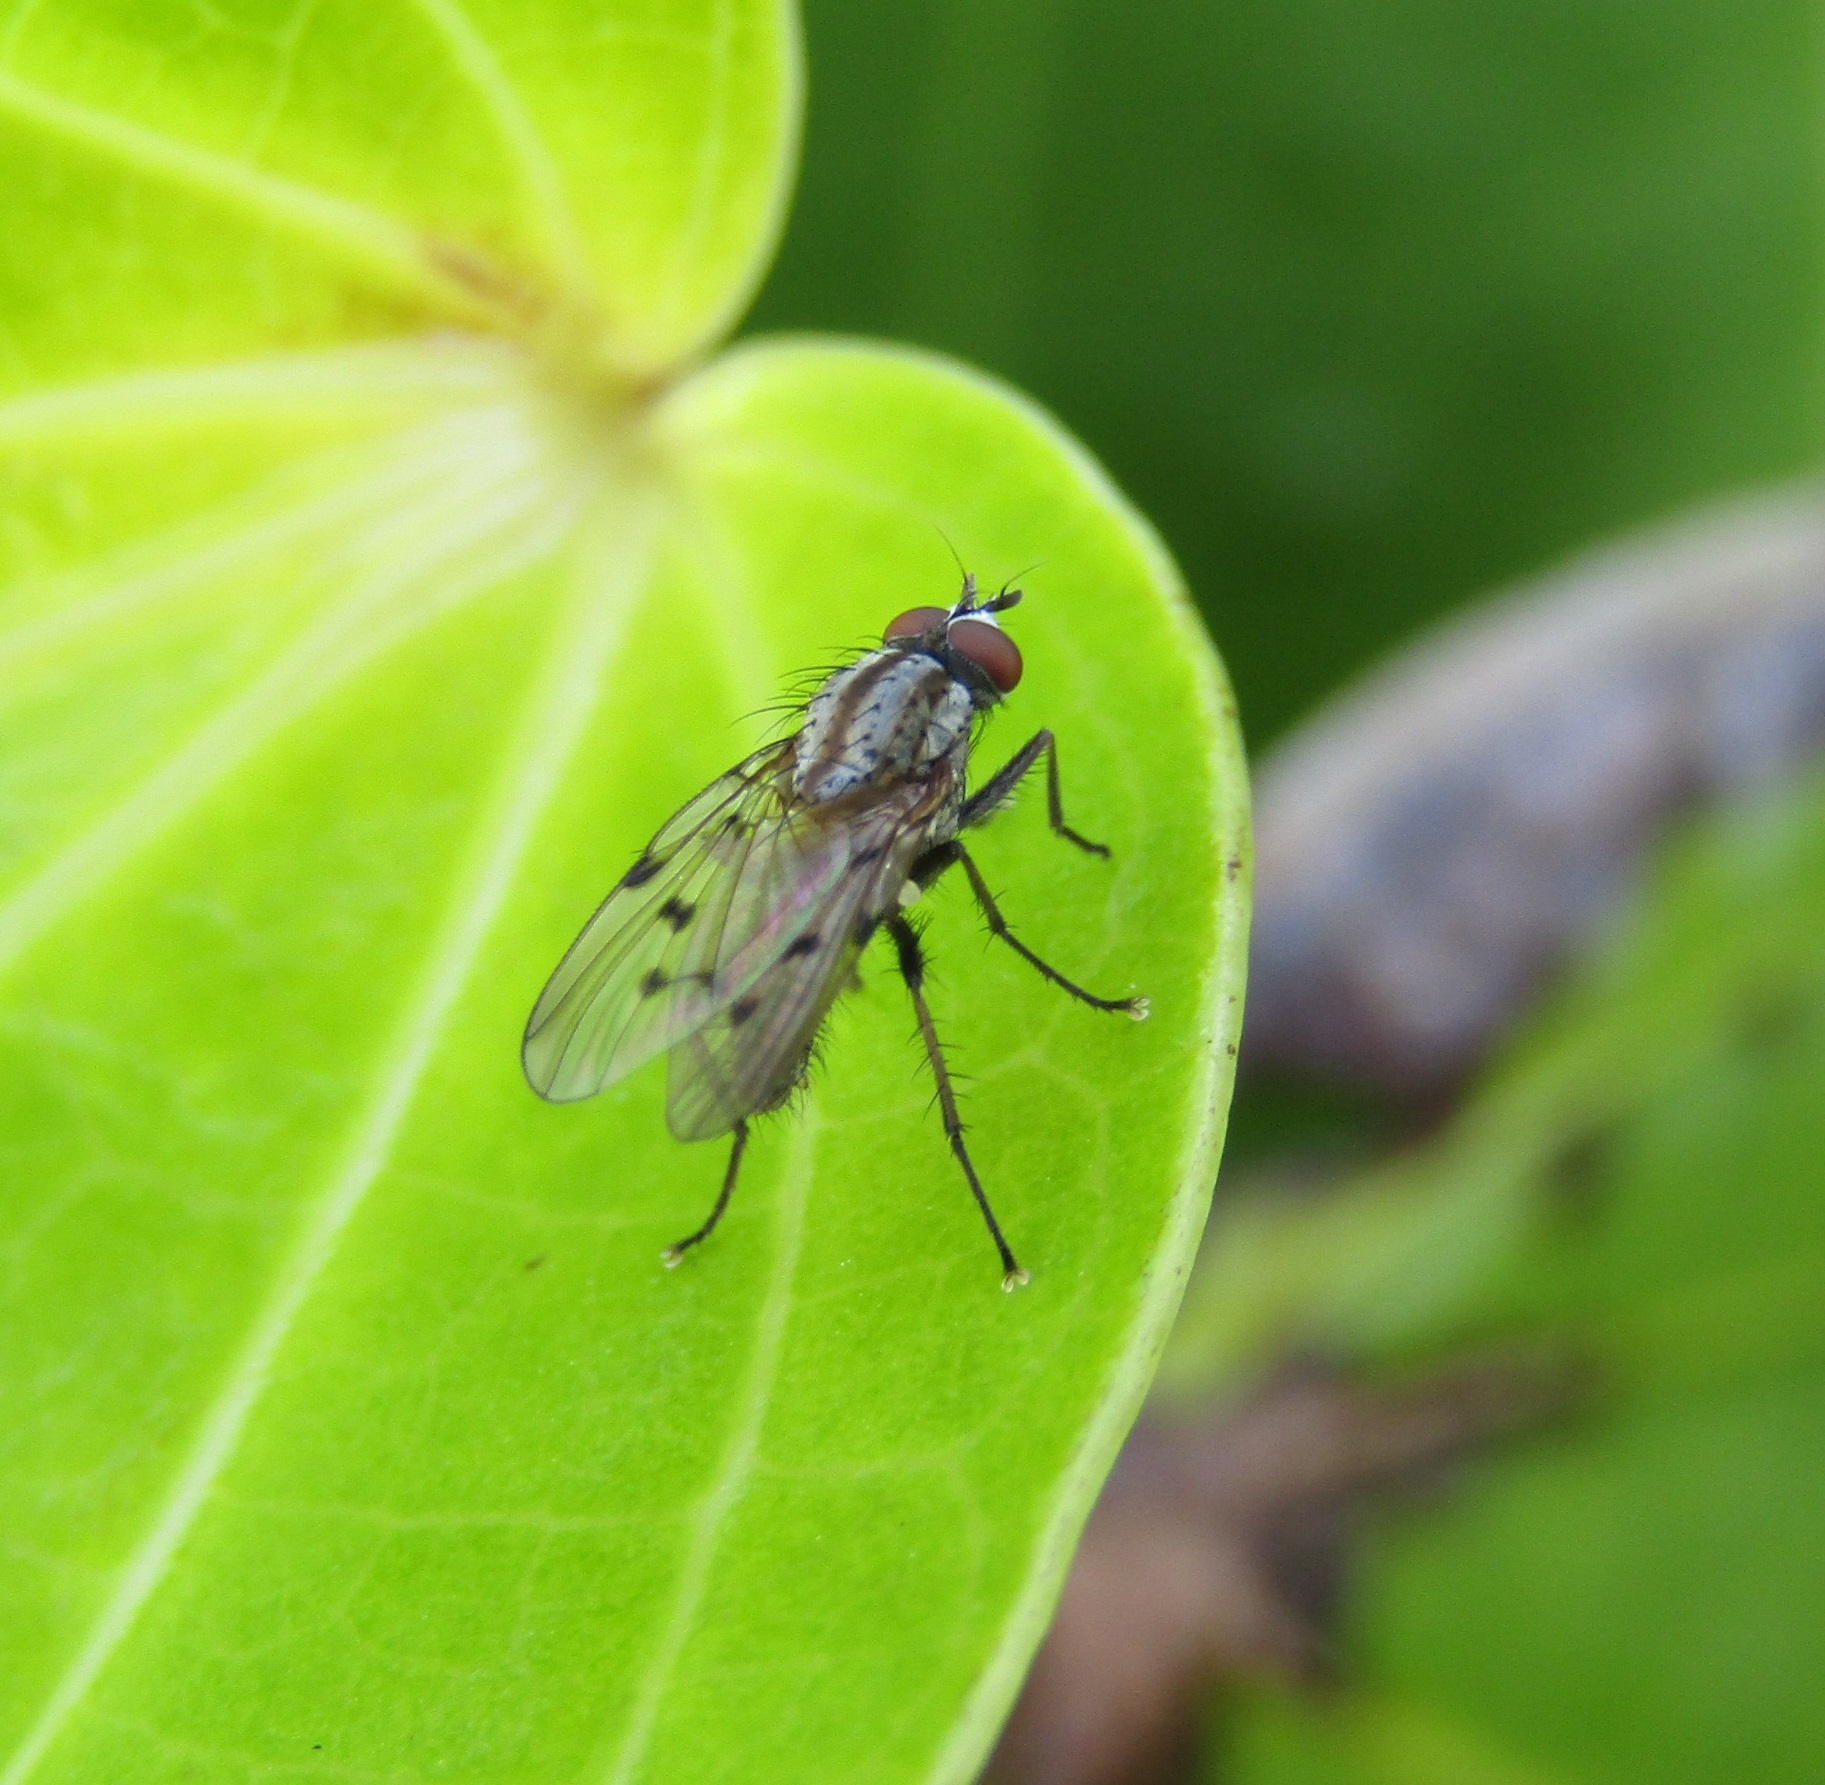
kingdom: Animalia
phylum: Arthropoda
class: Insecta
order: Diptera
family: Anthomyiidae
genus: Anthomyia
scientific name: Anthomyia punctipennis
